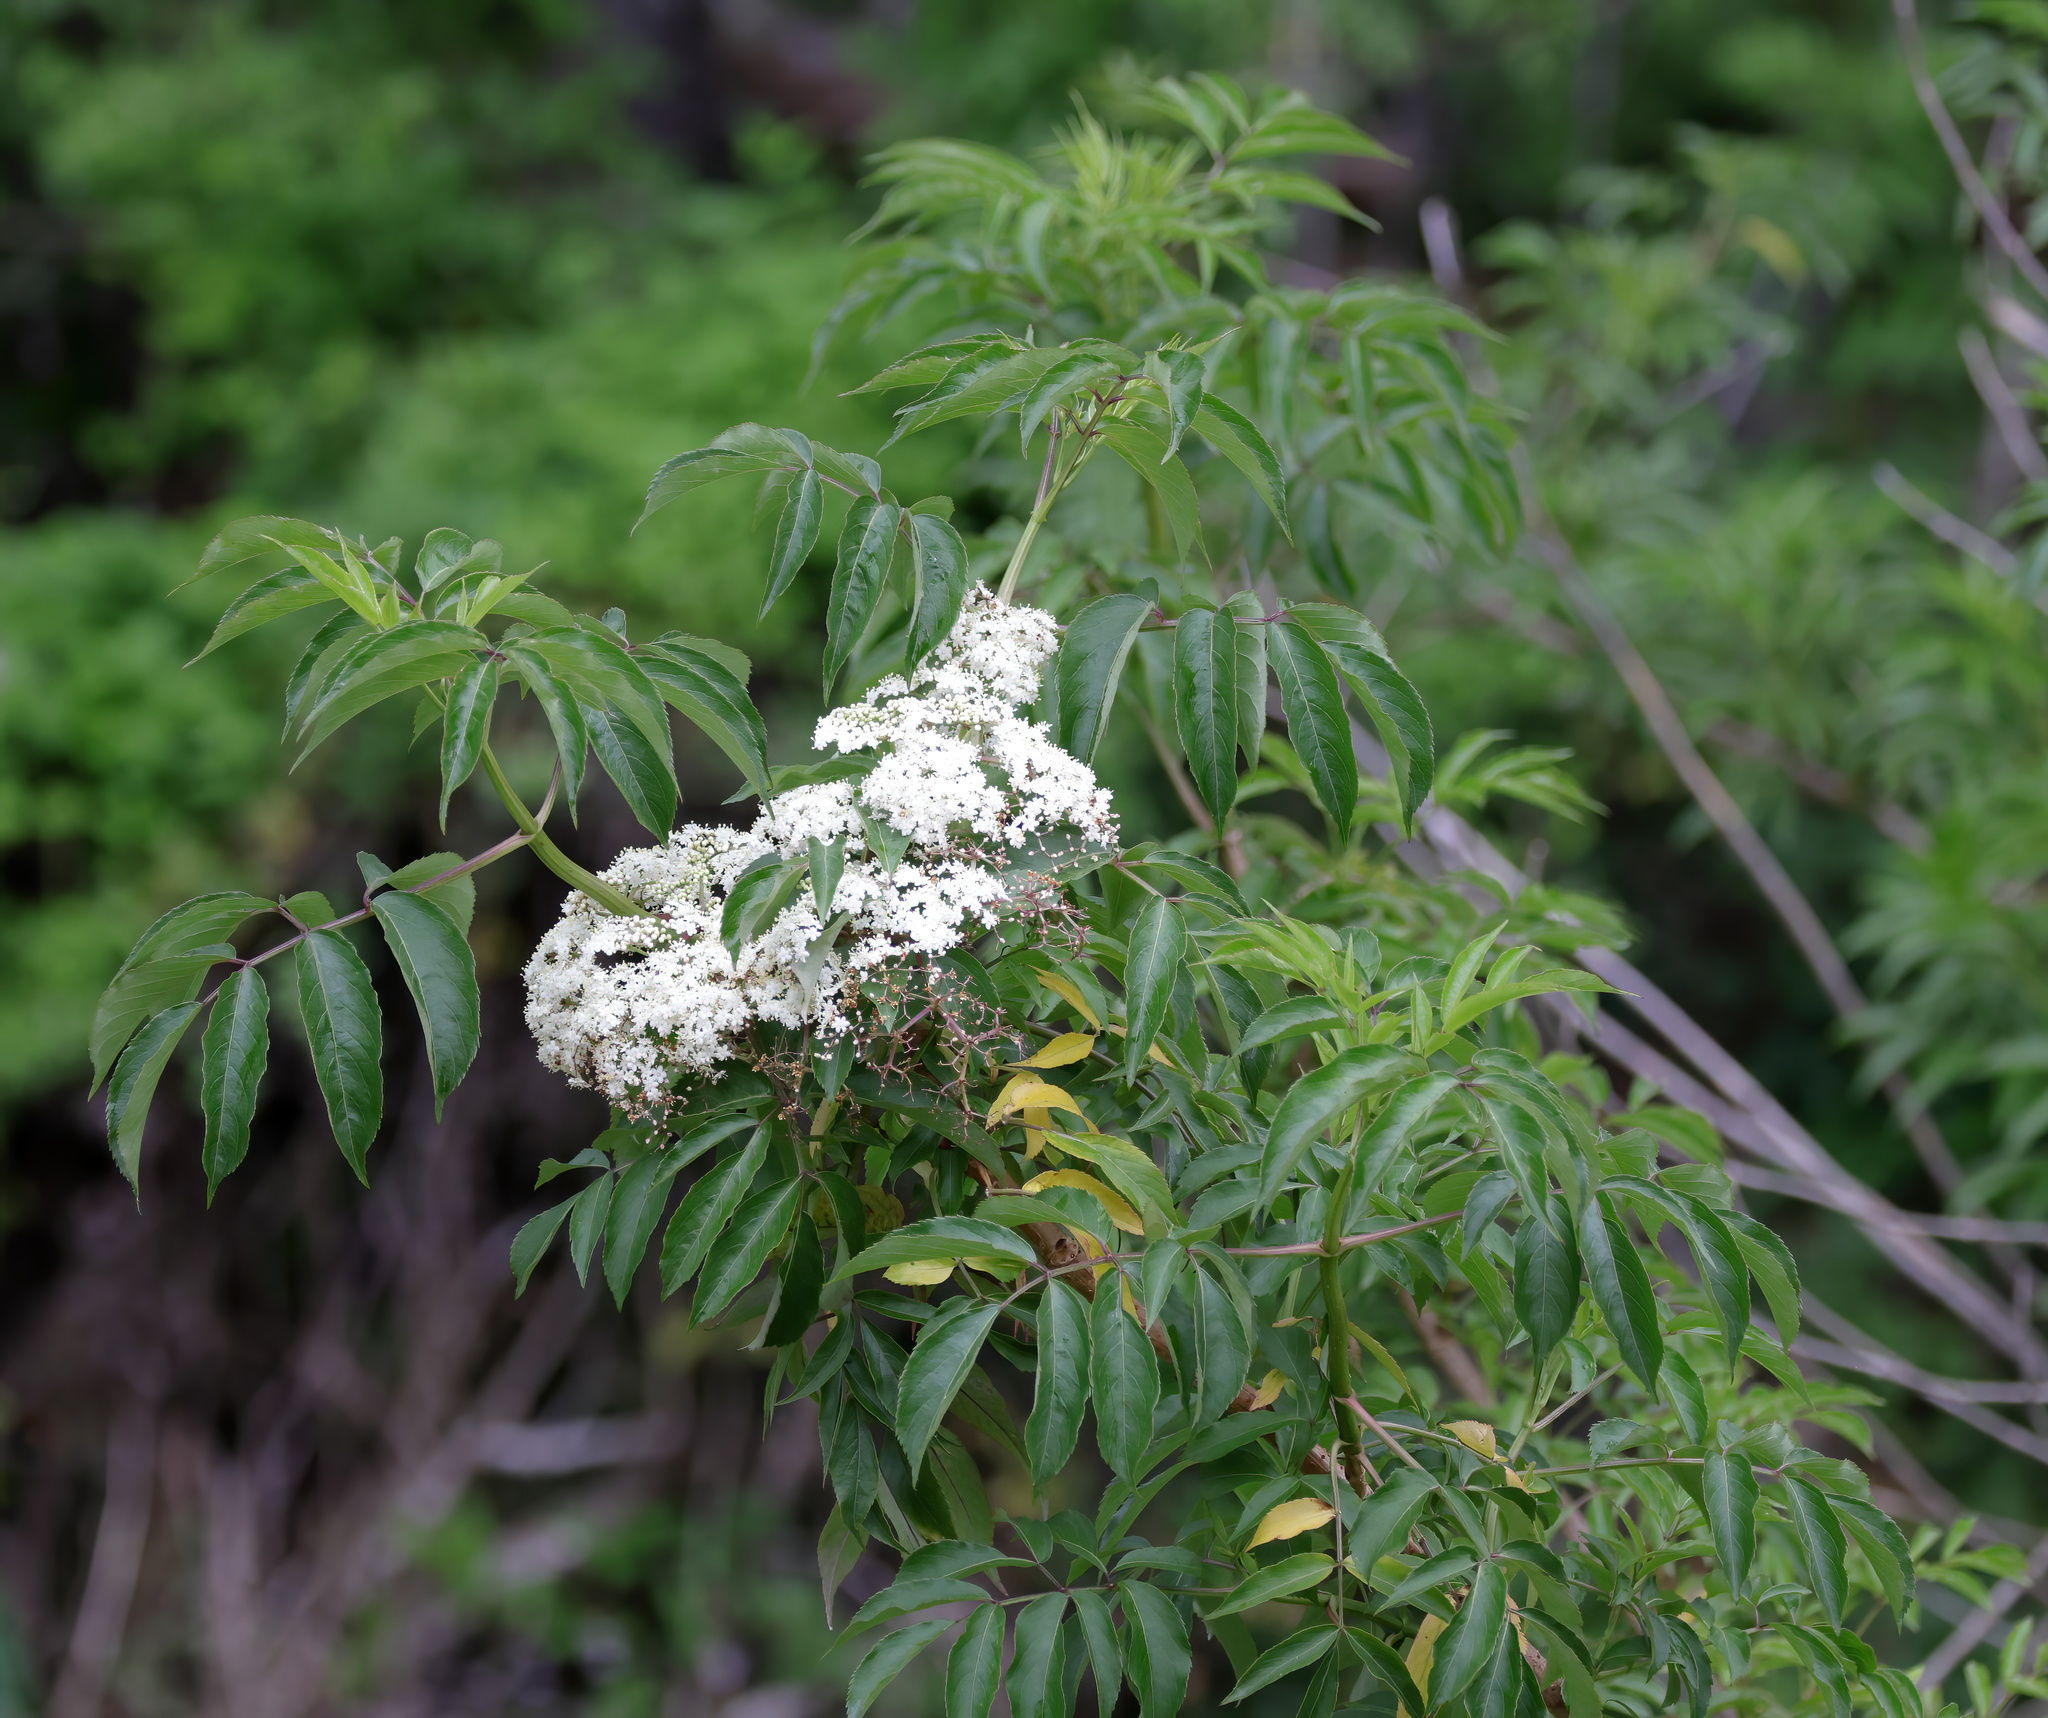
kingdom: Plantae
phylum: Tracheophyta
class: Magnoliopsida
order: Dipsacales
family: Viburnaceae
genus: Sambucus
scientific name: Sambucus canadensis
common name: American elder
